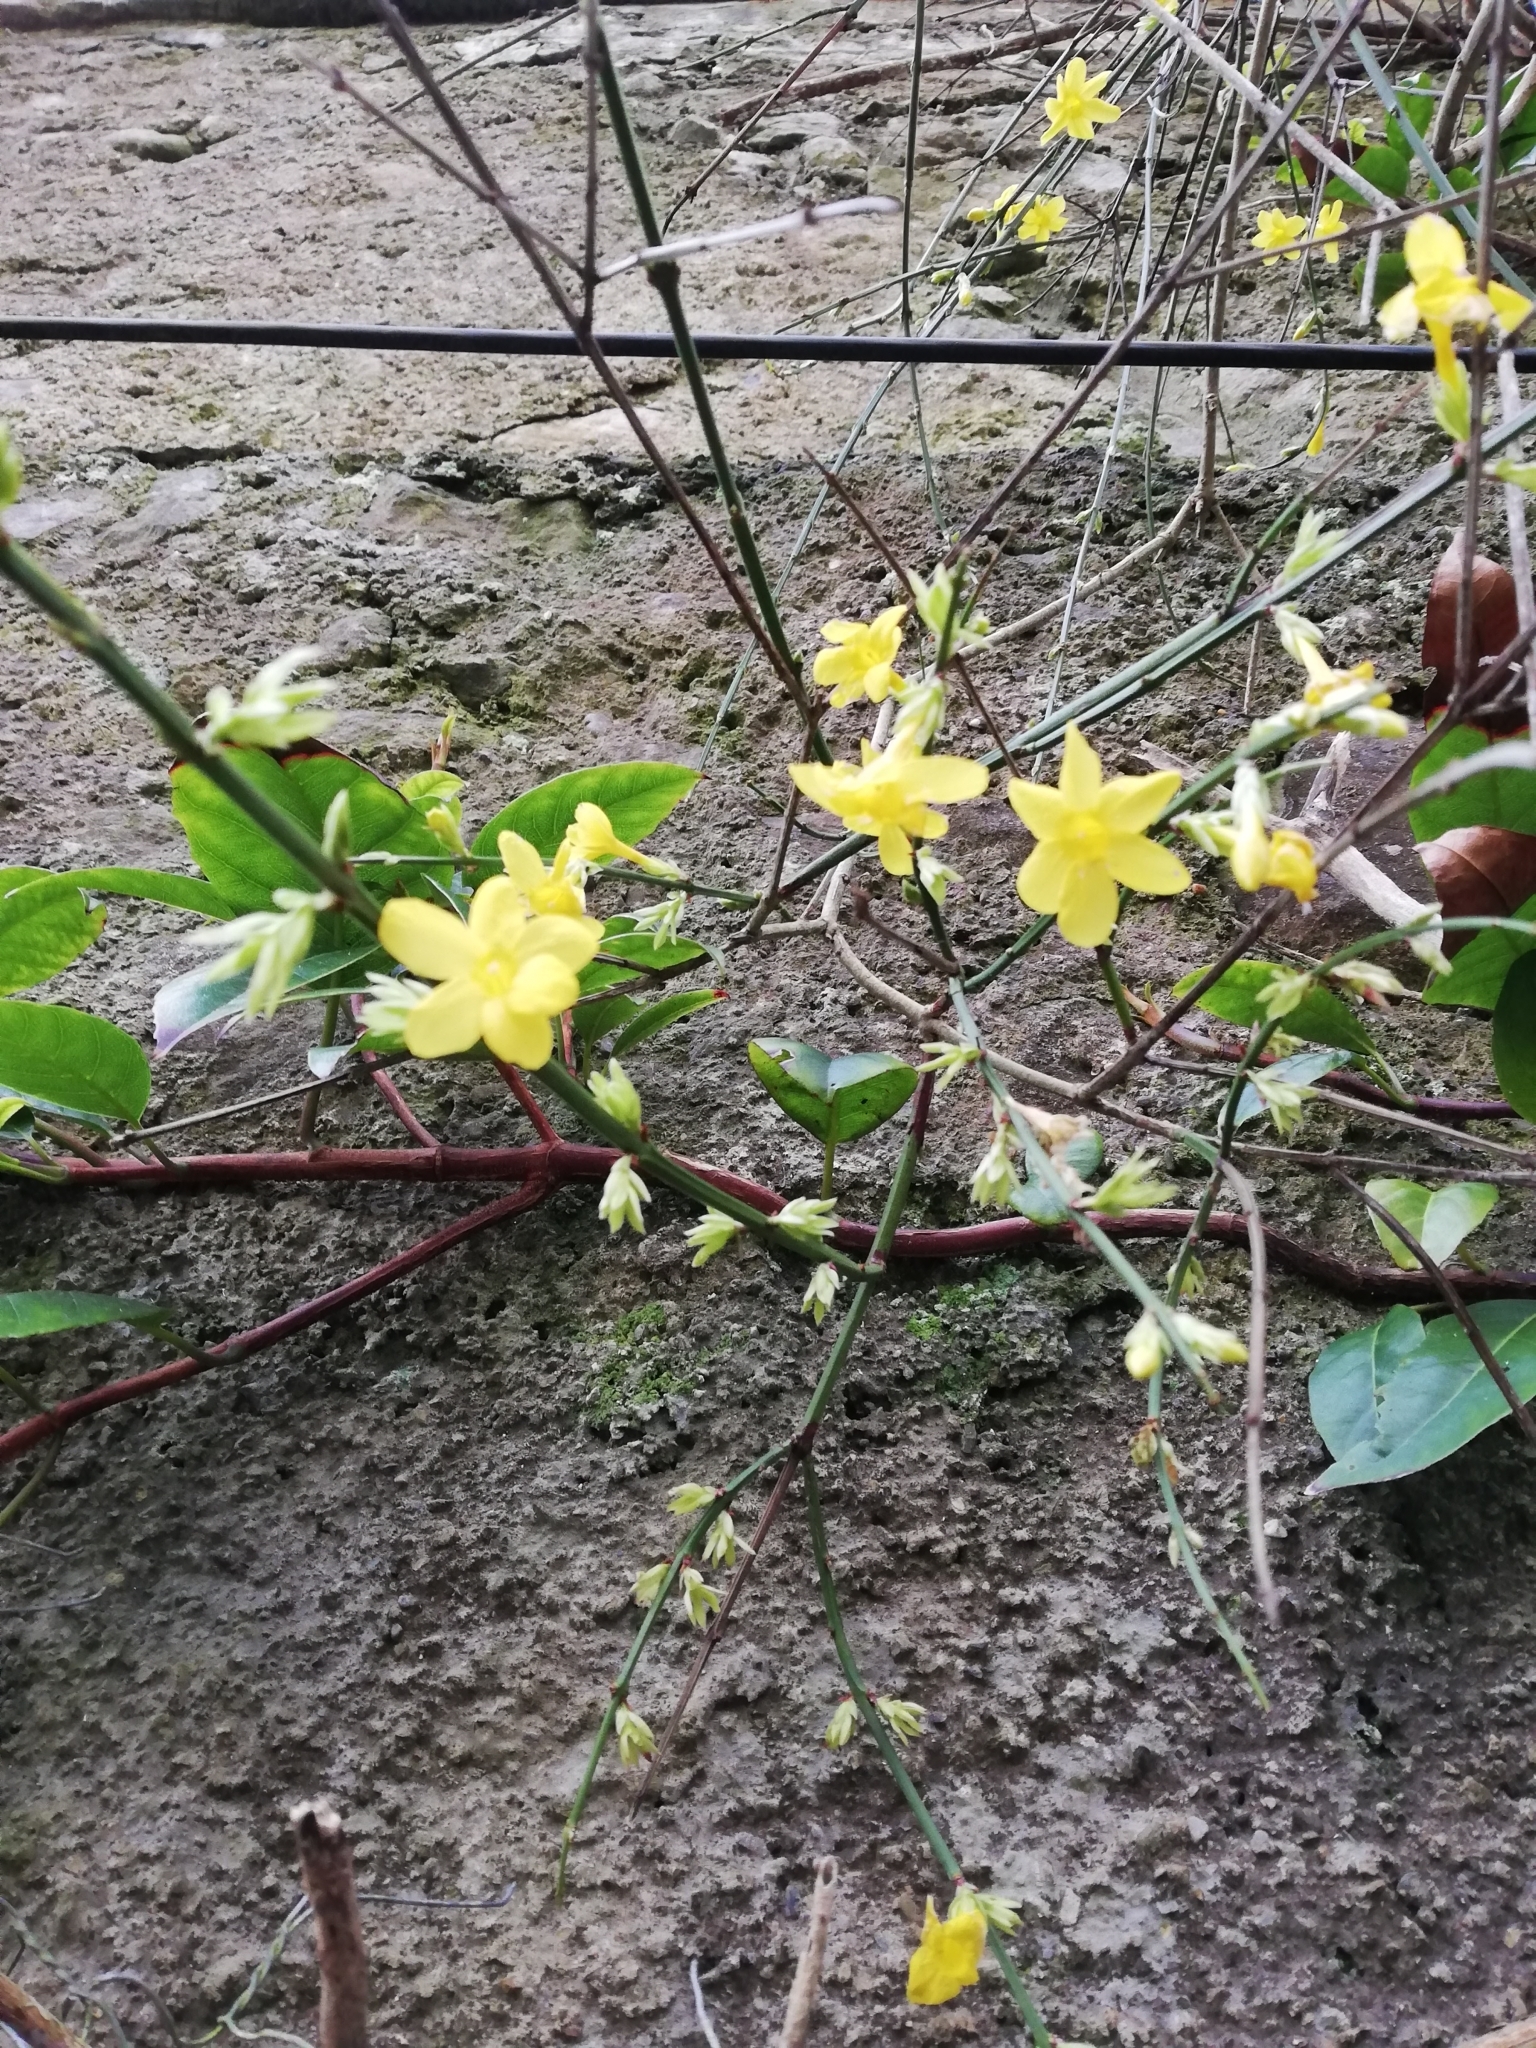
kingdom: Plantae
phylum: Tracheophyta
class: Magnoliopsida
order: Lamiales
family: Oleaceae
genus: Jasminum
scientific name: Jasminum nudiflorum
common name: Winter jasmine
